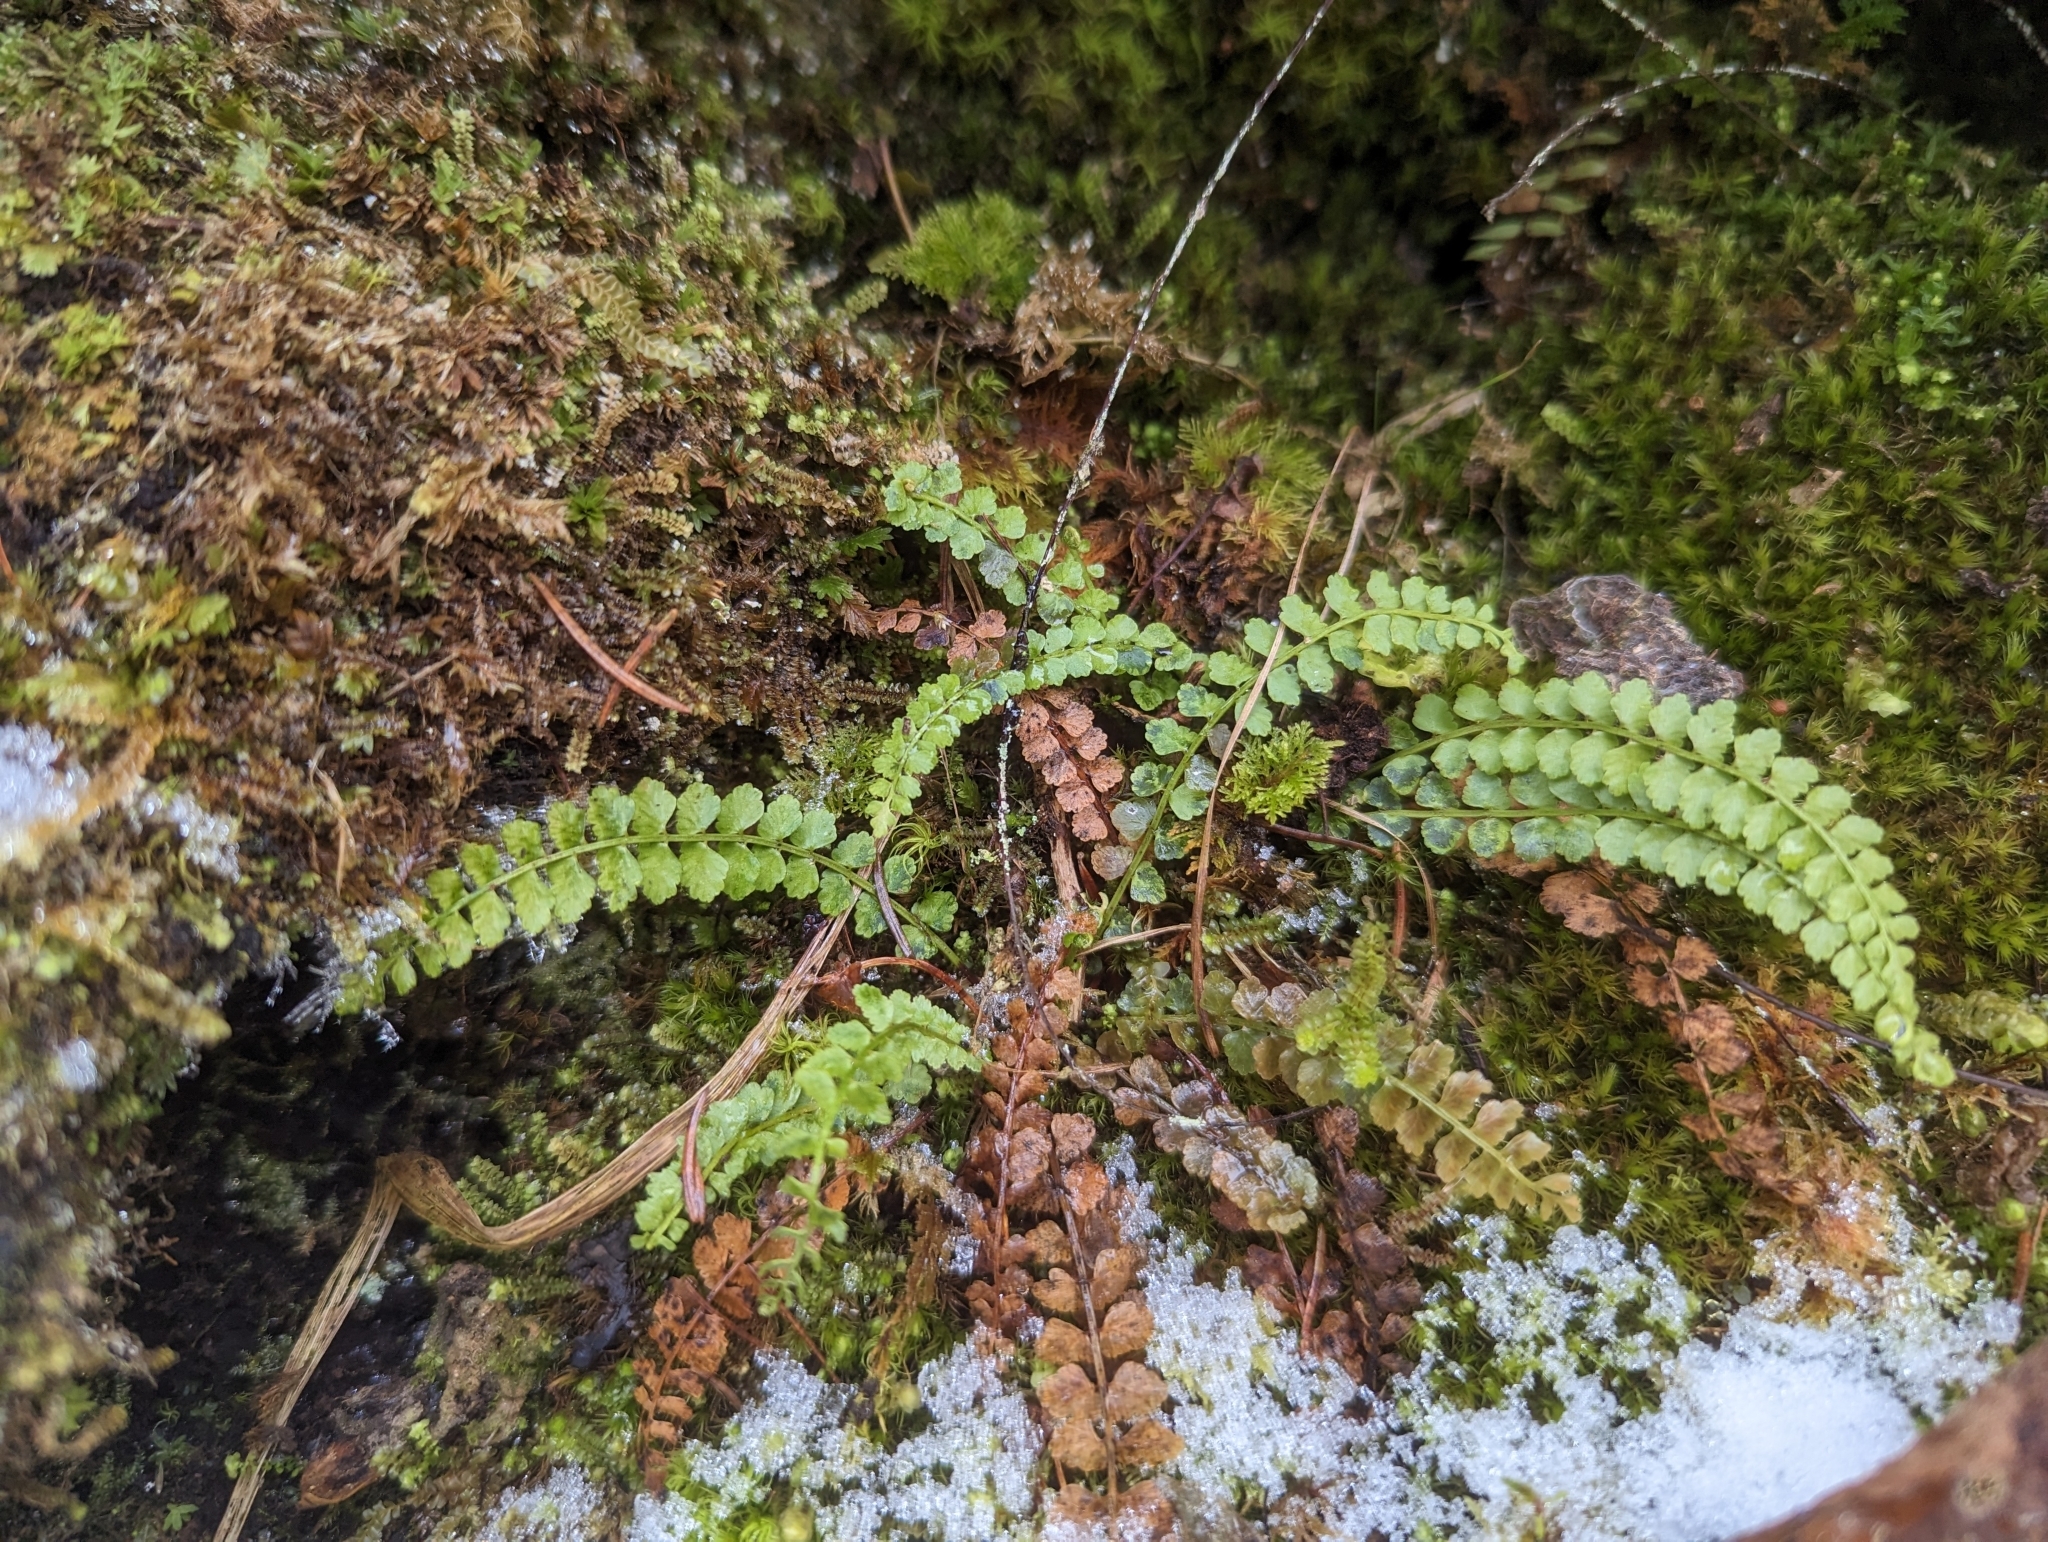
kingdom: Plantae
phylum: Tracheophyta
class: Polypodiopsida
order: Polypodiales
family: Aspleniaceae
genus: Asplenium
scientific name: Asplenium viride
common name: Green spleenwort
